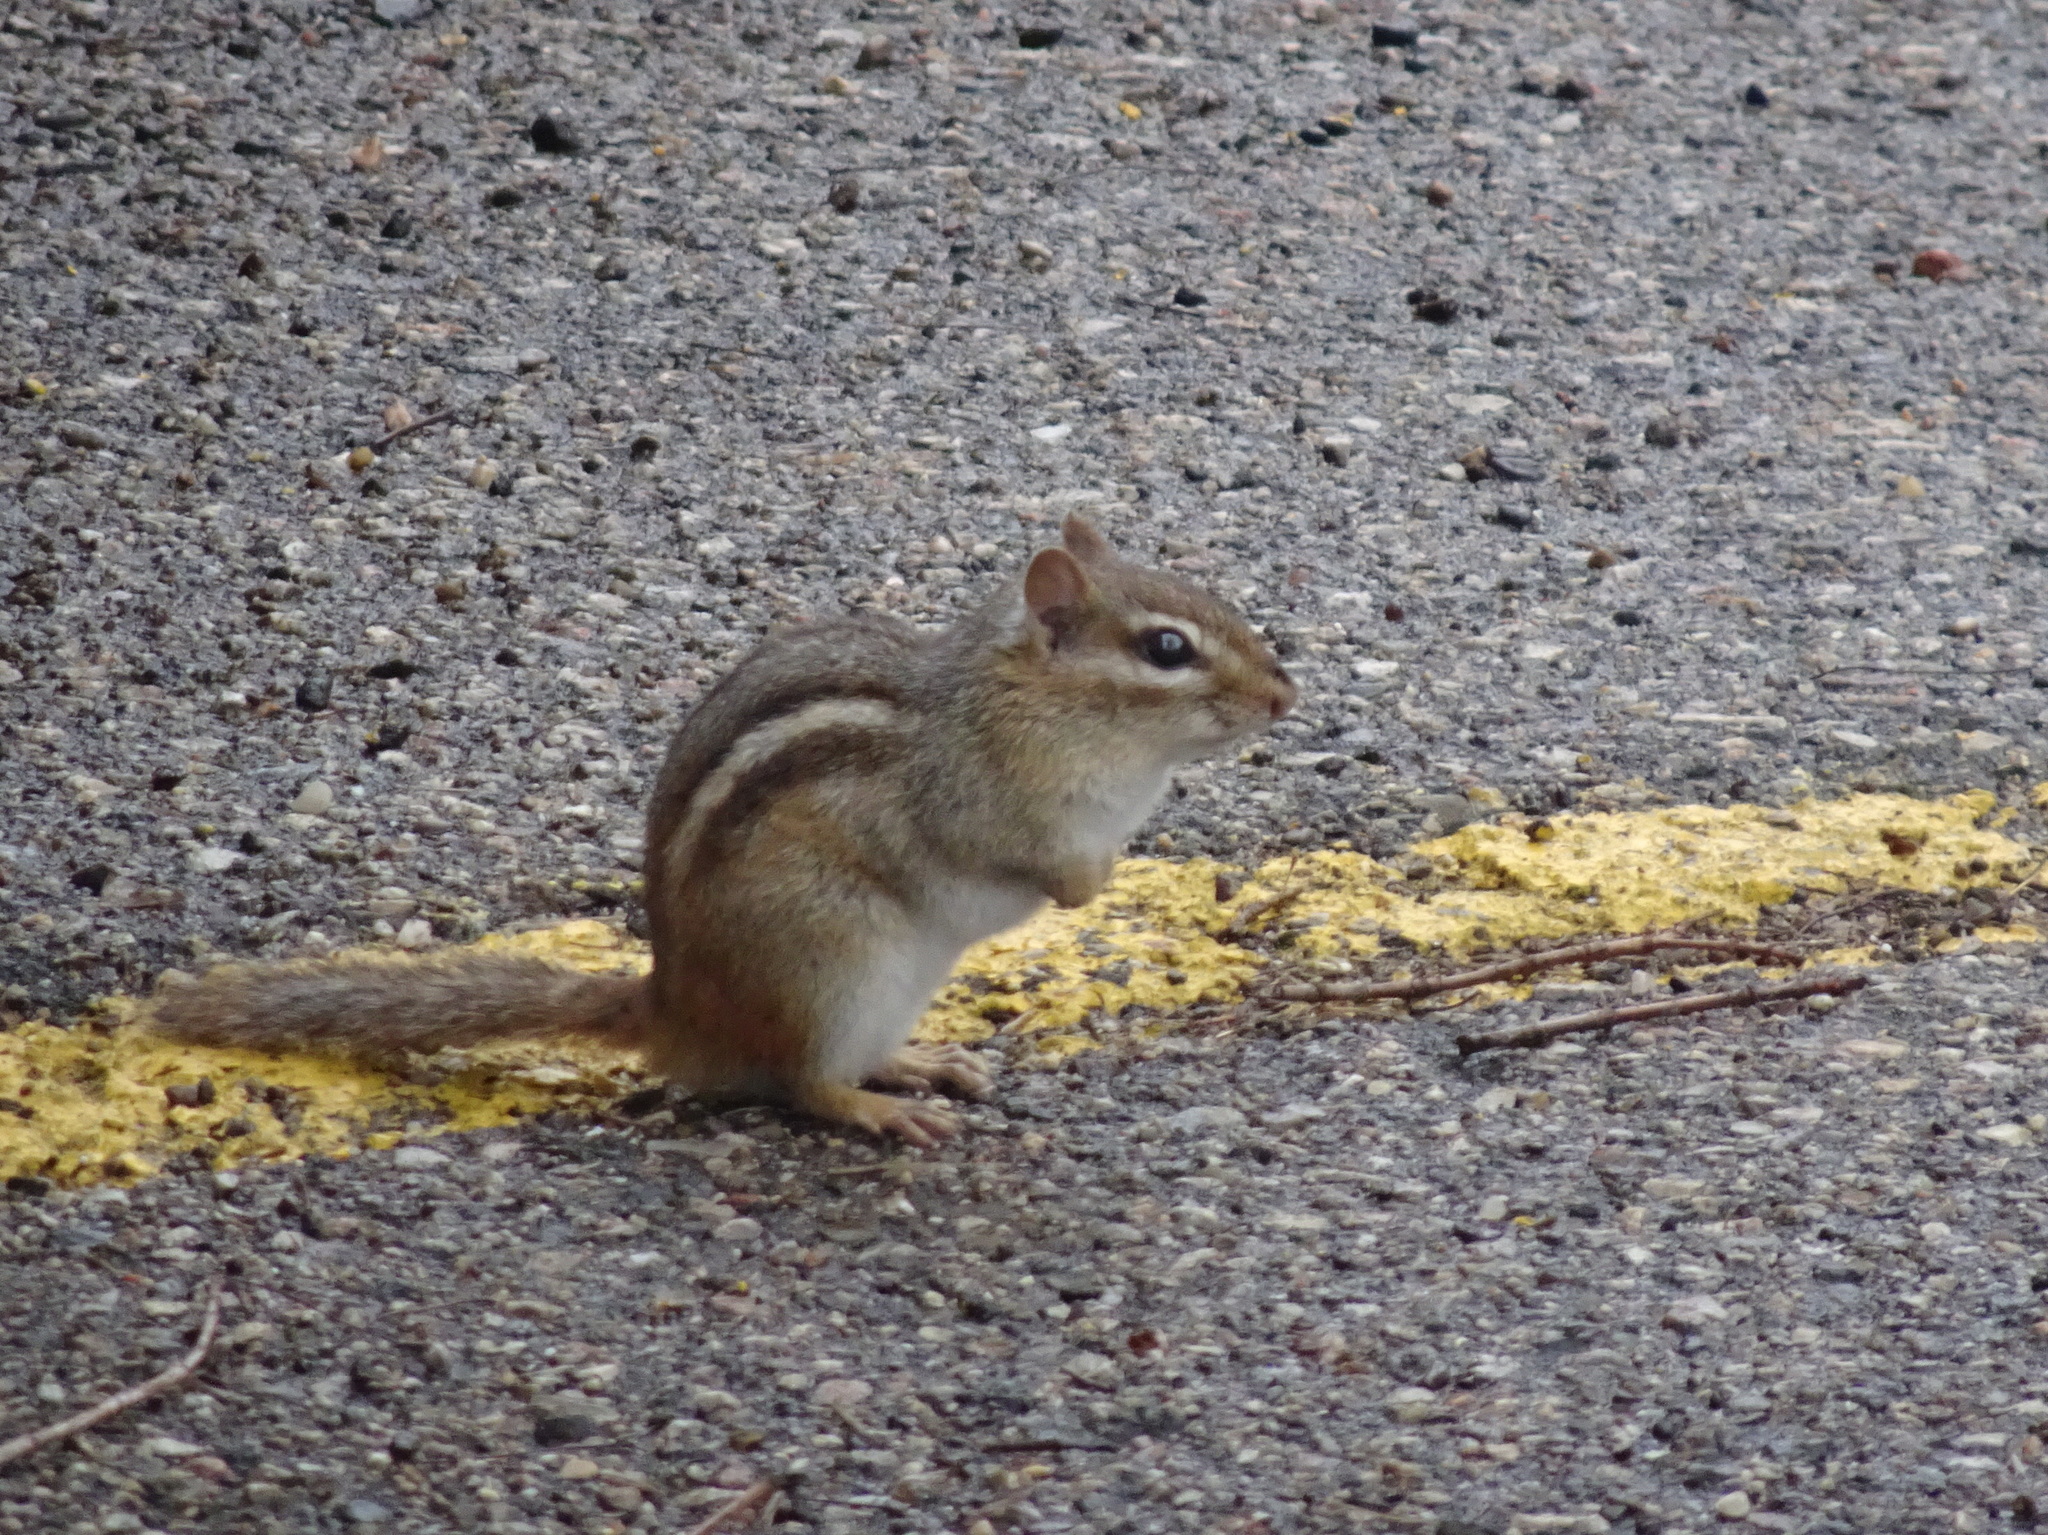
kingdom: Animalia
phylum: Chordata
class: Mammalia
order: Rodentia
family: Sciuridae
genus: Tamias
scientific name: Tamias striatus
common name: Eastern chipmunk
